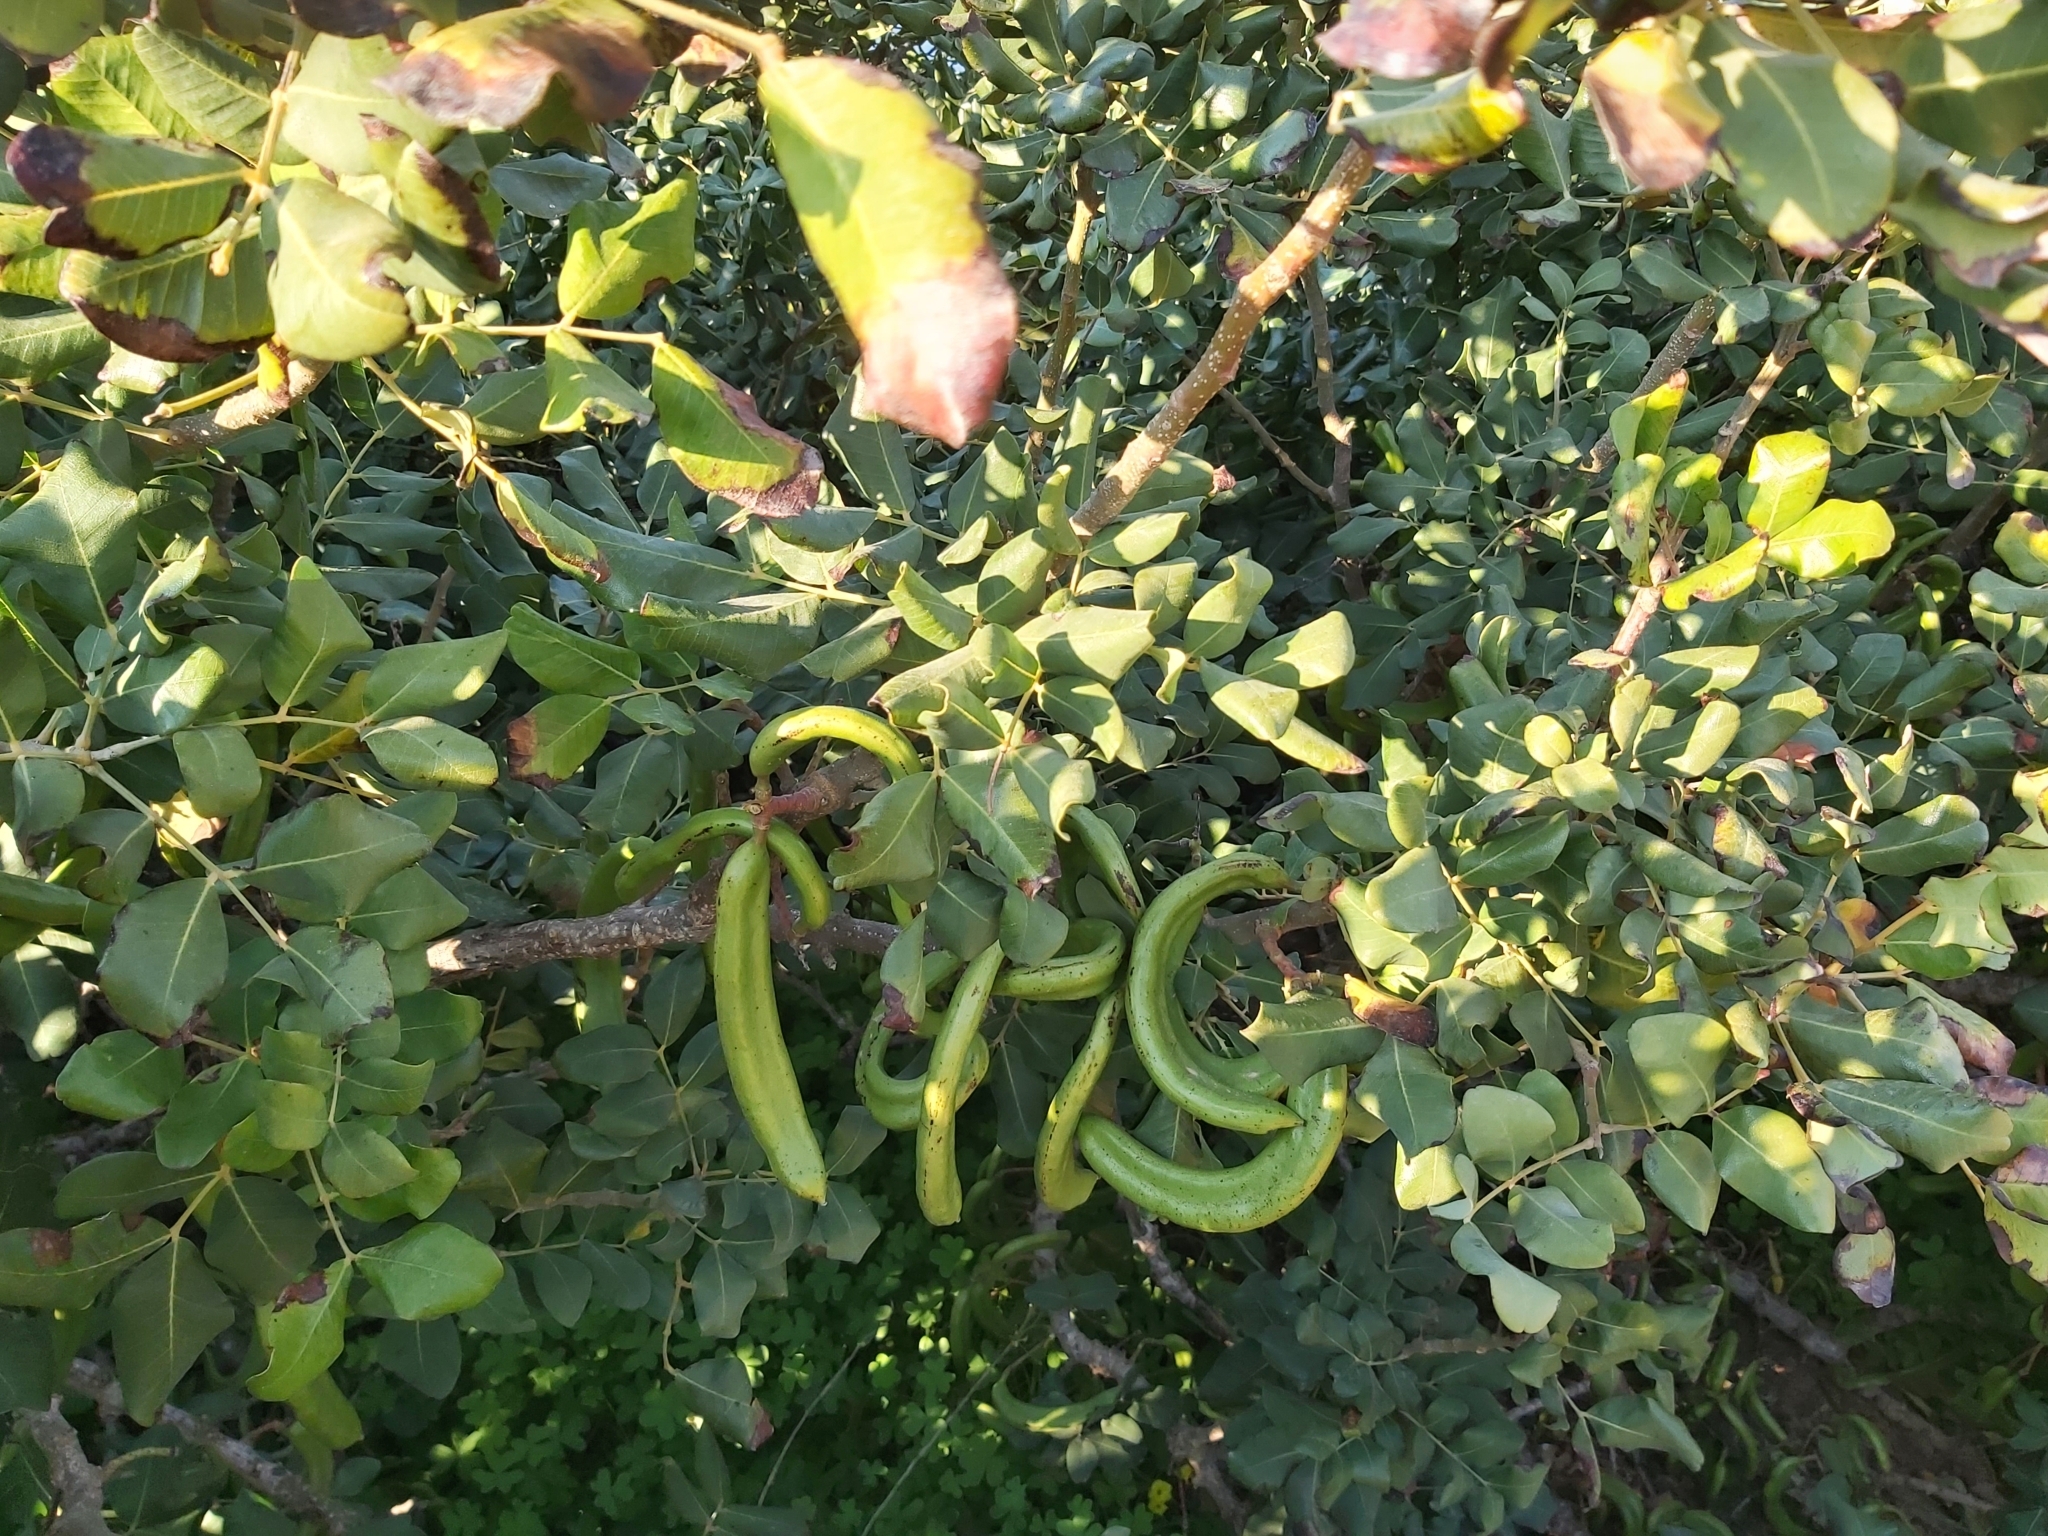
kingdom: Plantae
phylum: Tracheophyta
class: Magnoliopsida
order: Fabales
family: Fabaceae
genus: Ceratonia
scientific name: Ceratonia siliqua
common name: Carob
